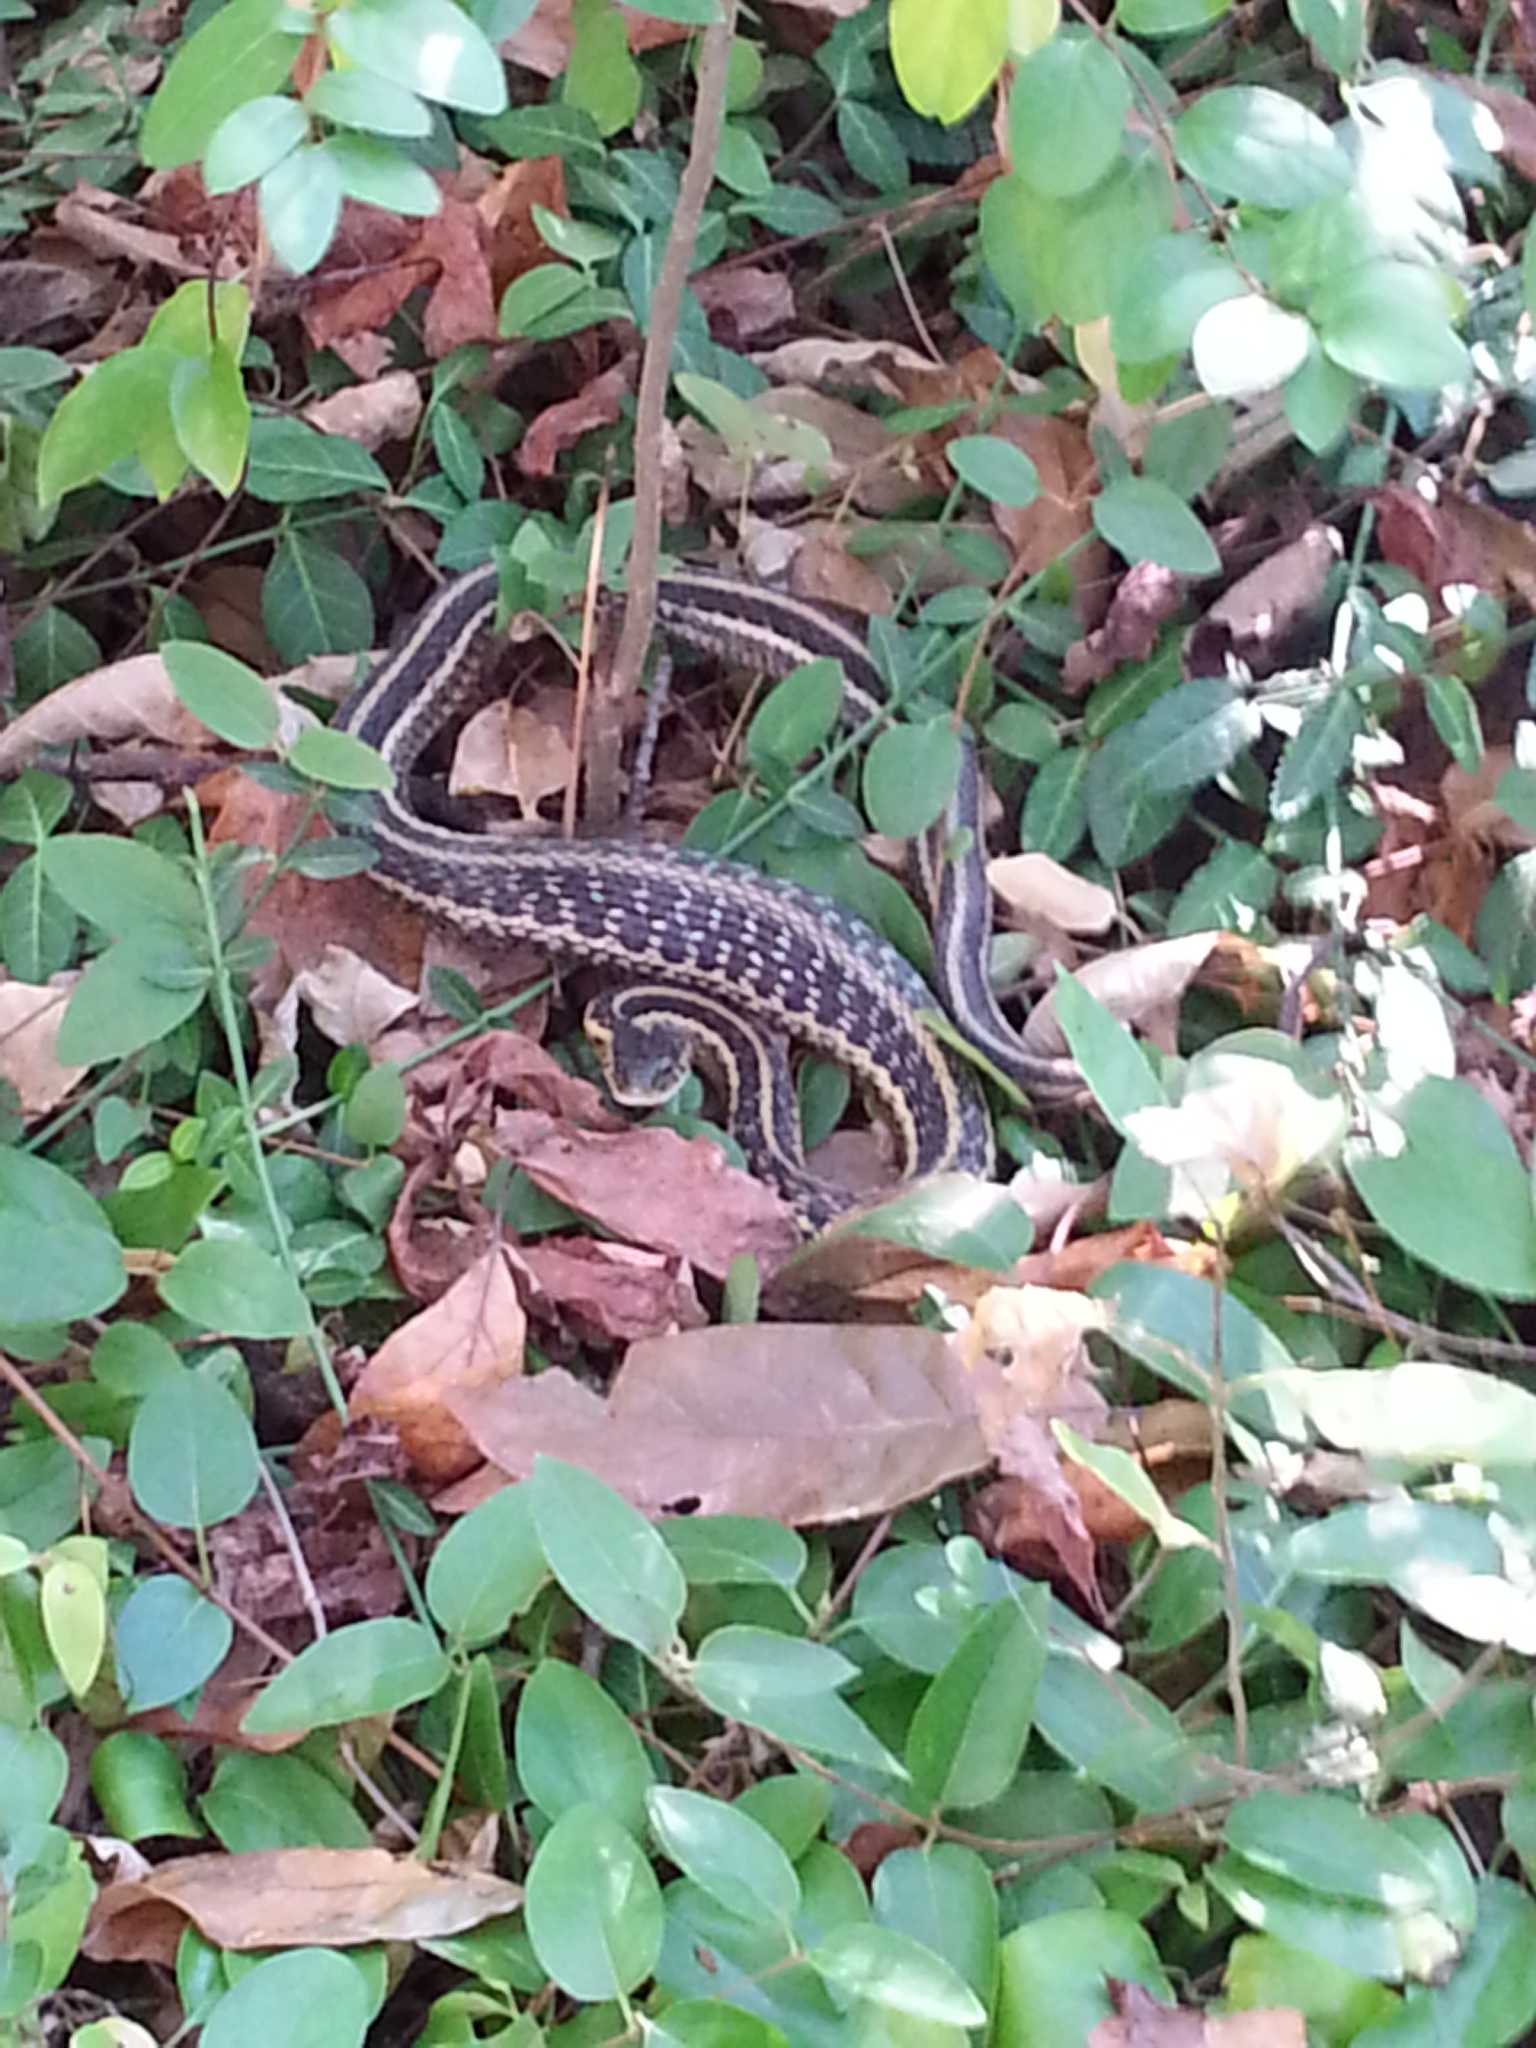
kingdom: Animalia
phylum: Chordata
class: Squamata
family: Colubridae
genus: Thamnophis
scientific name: Thamnophis sirtalis
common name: Common garter snake
